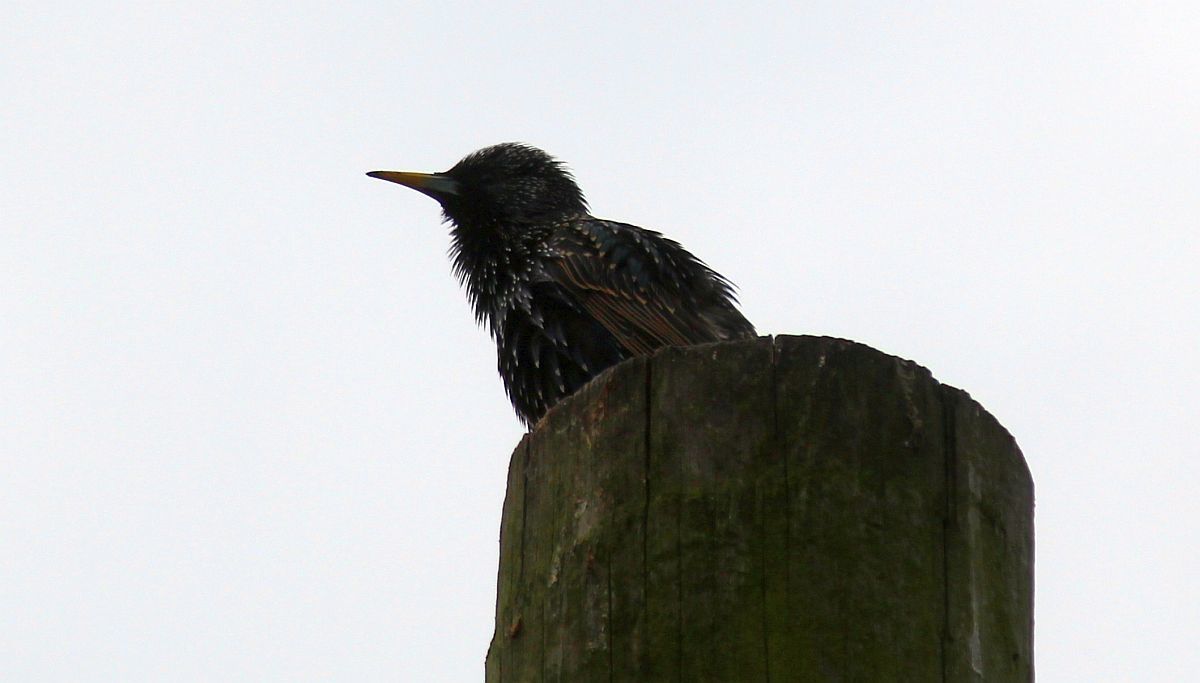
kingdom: Animalia
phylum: Chordata
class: Aves
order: Passeriformes
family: Sturnidae
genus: Sturnus
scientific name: Sturnus vulgaris
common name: Common starling
